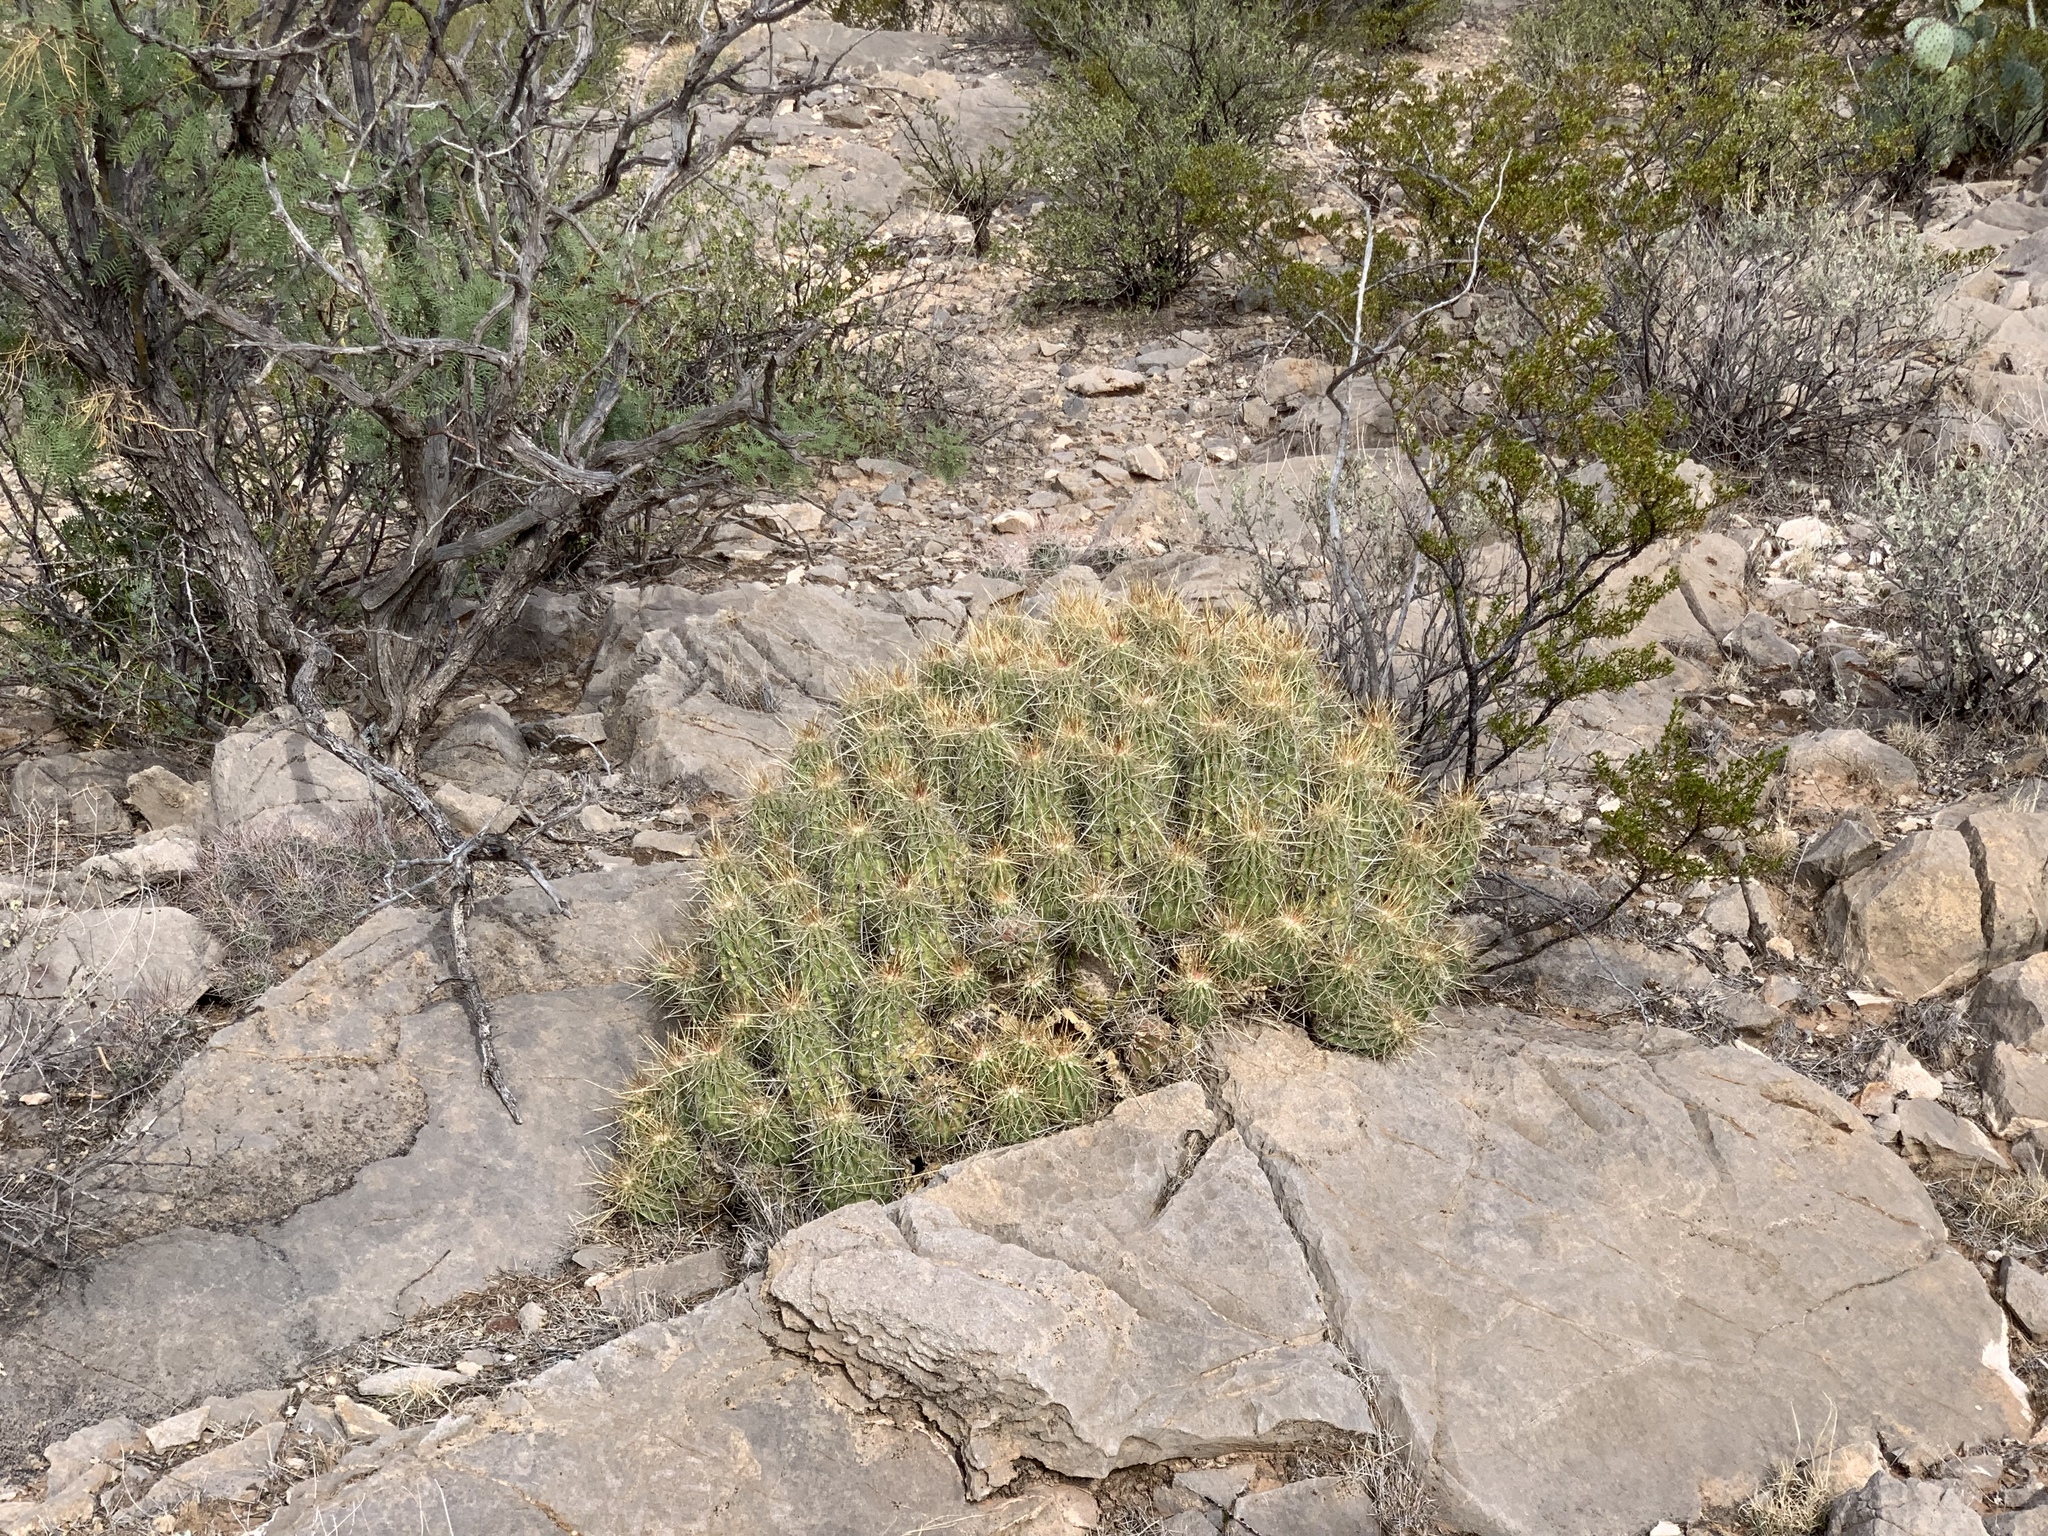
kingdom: Plantae
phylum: Tracheophyta
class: Magnoliopsida
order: Caryophyllales
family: Cactaceae
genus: Echinocereus
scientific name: Echinocereus stramineus
